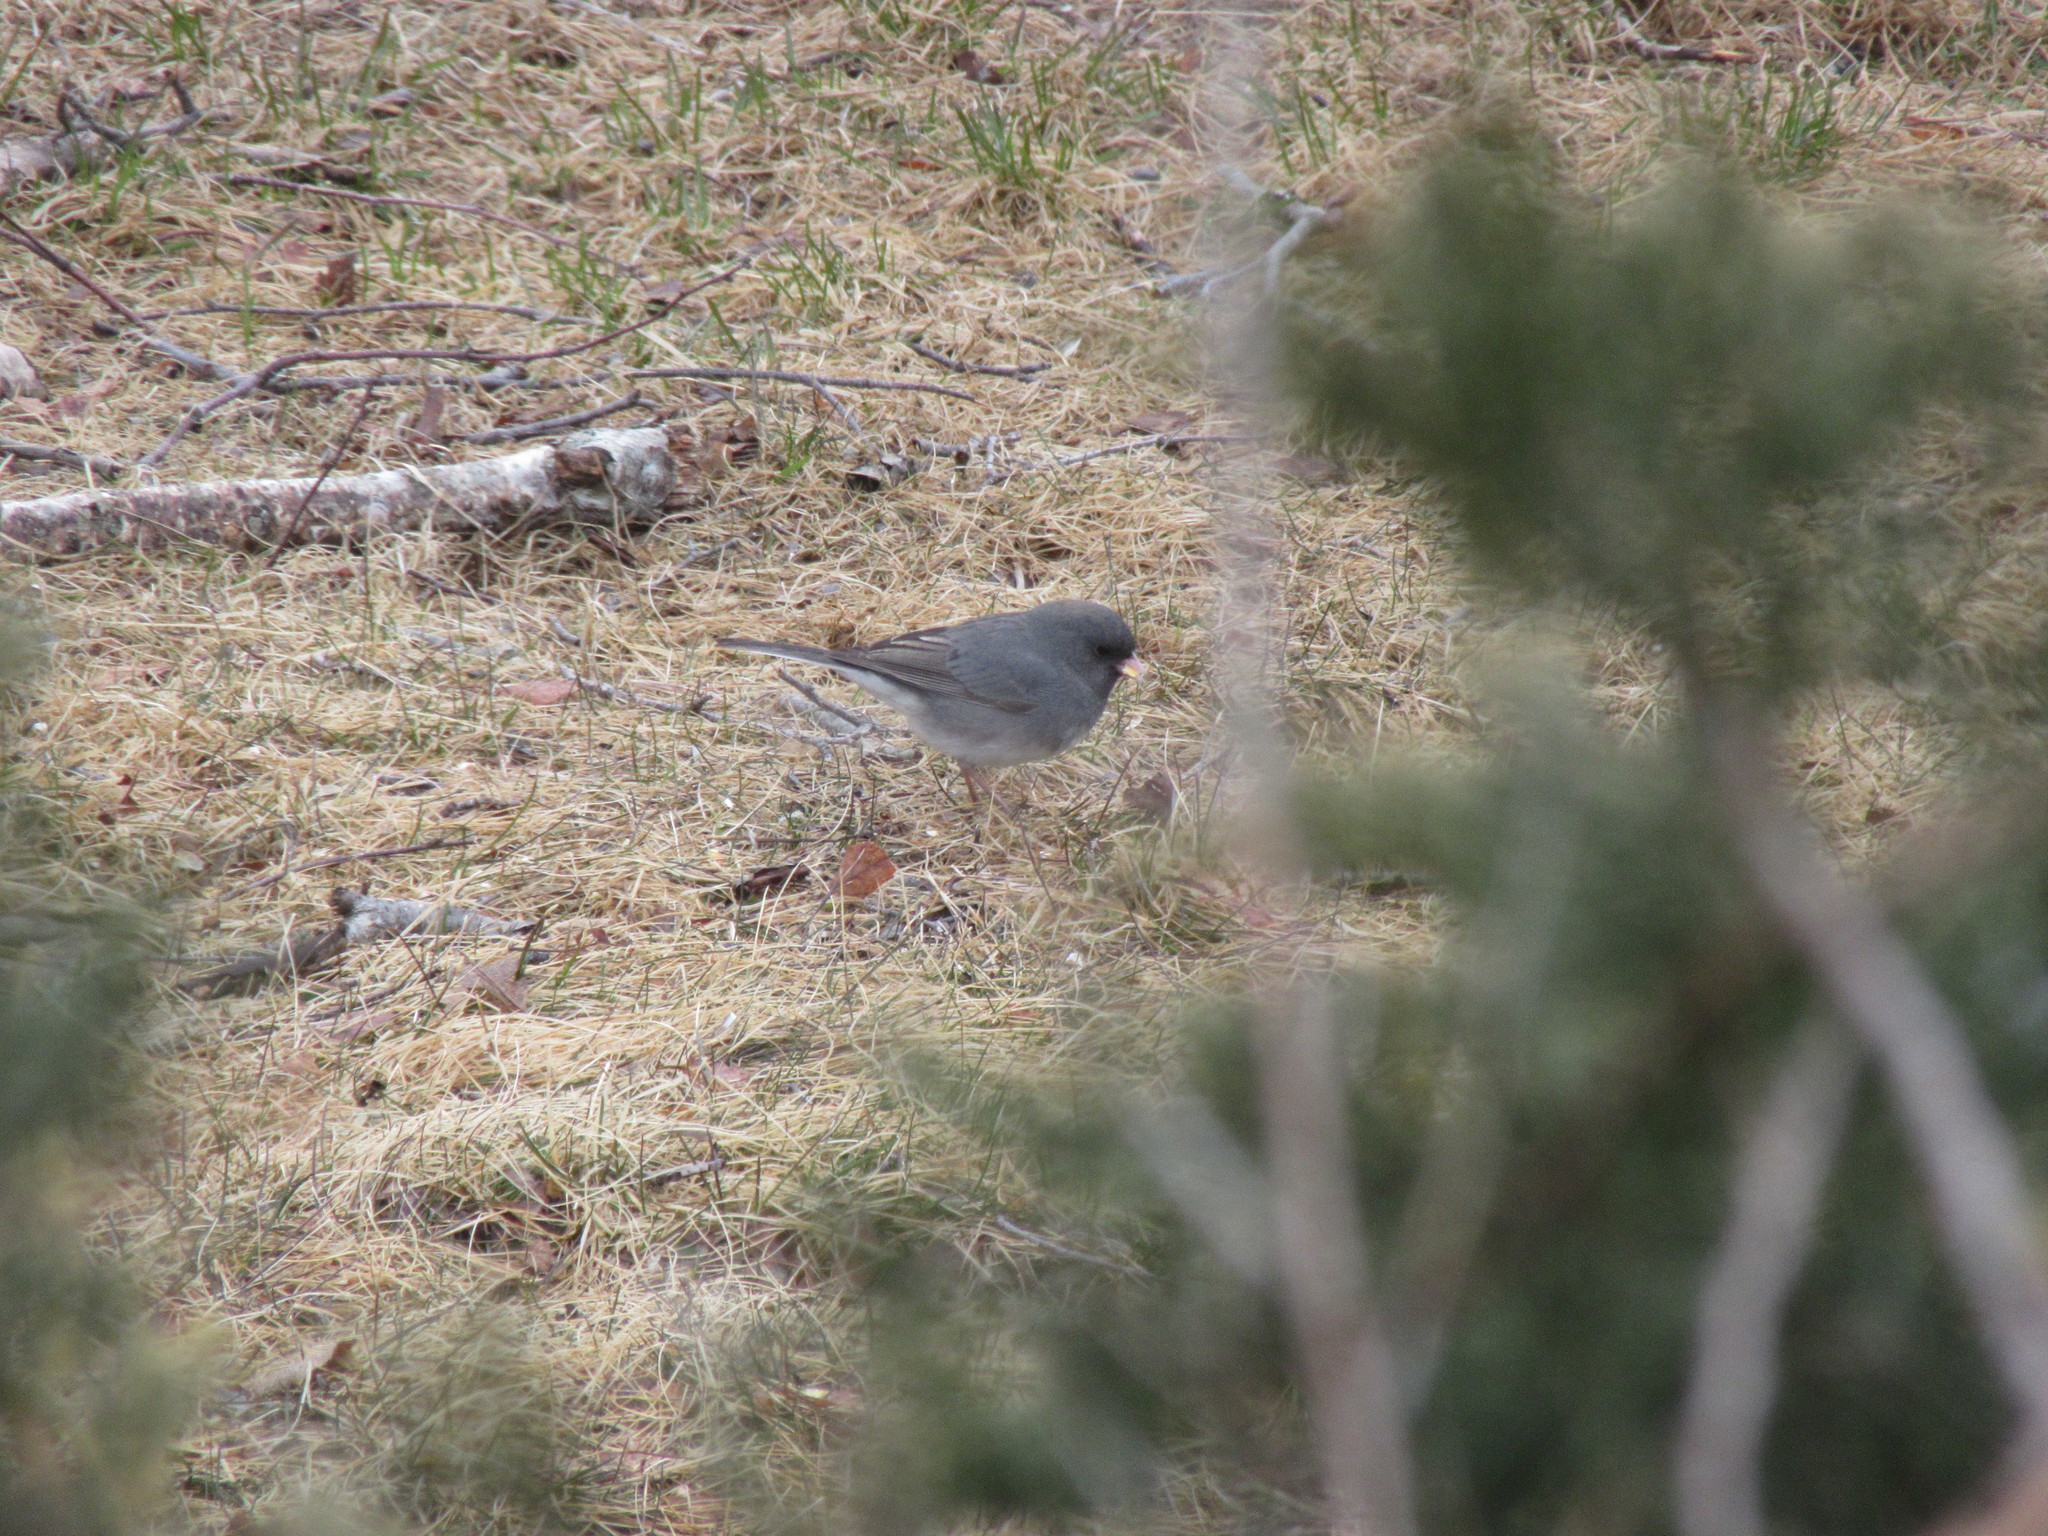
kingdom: Animalia
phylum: Chordata
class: Aves
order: Passeriformes
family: Passerellidae
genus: Junco
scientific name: Junco hyemalis
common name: Dark-eyed junco
